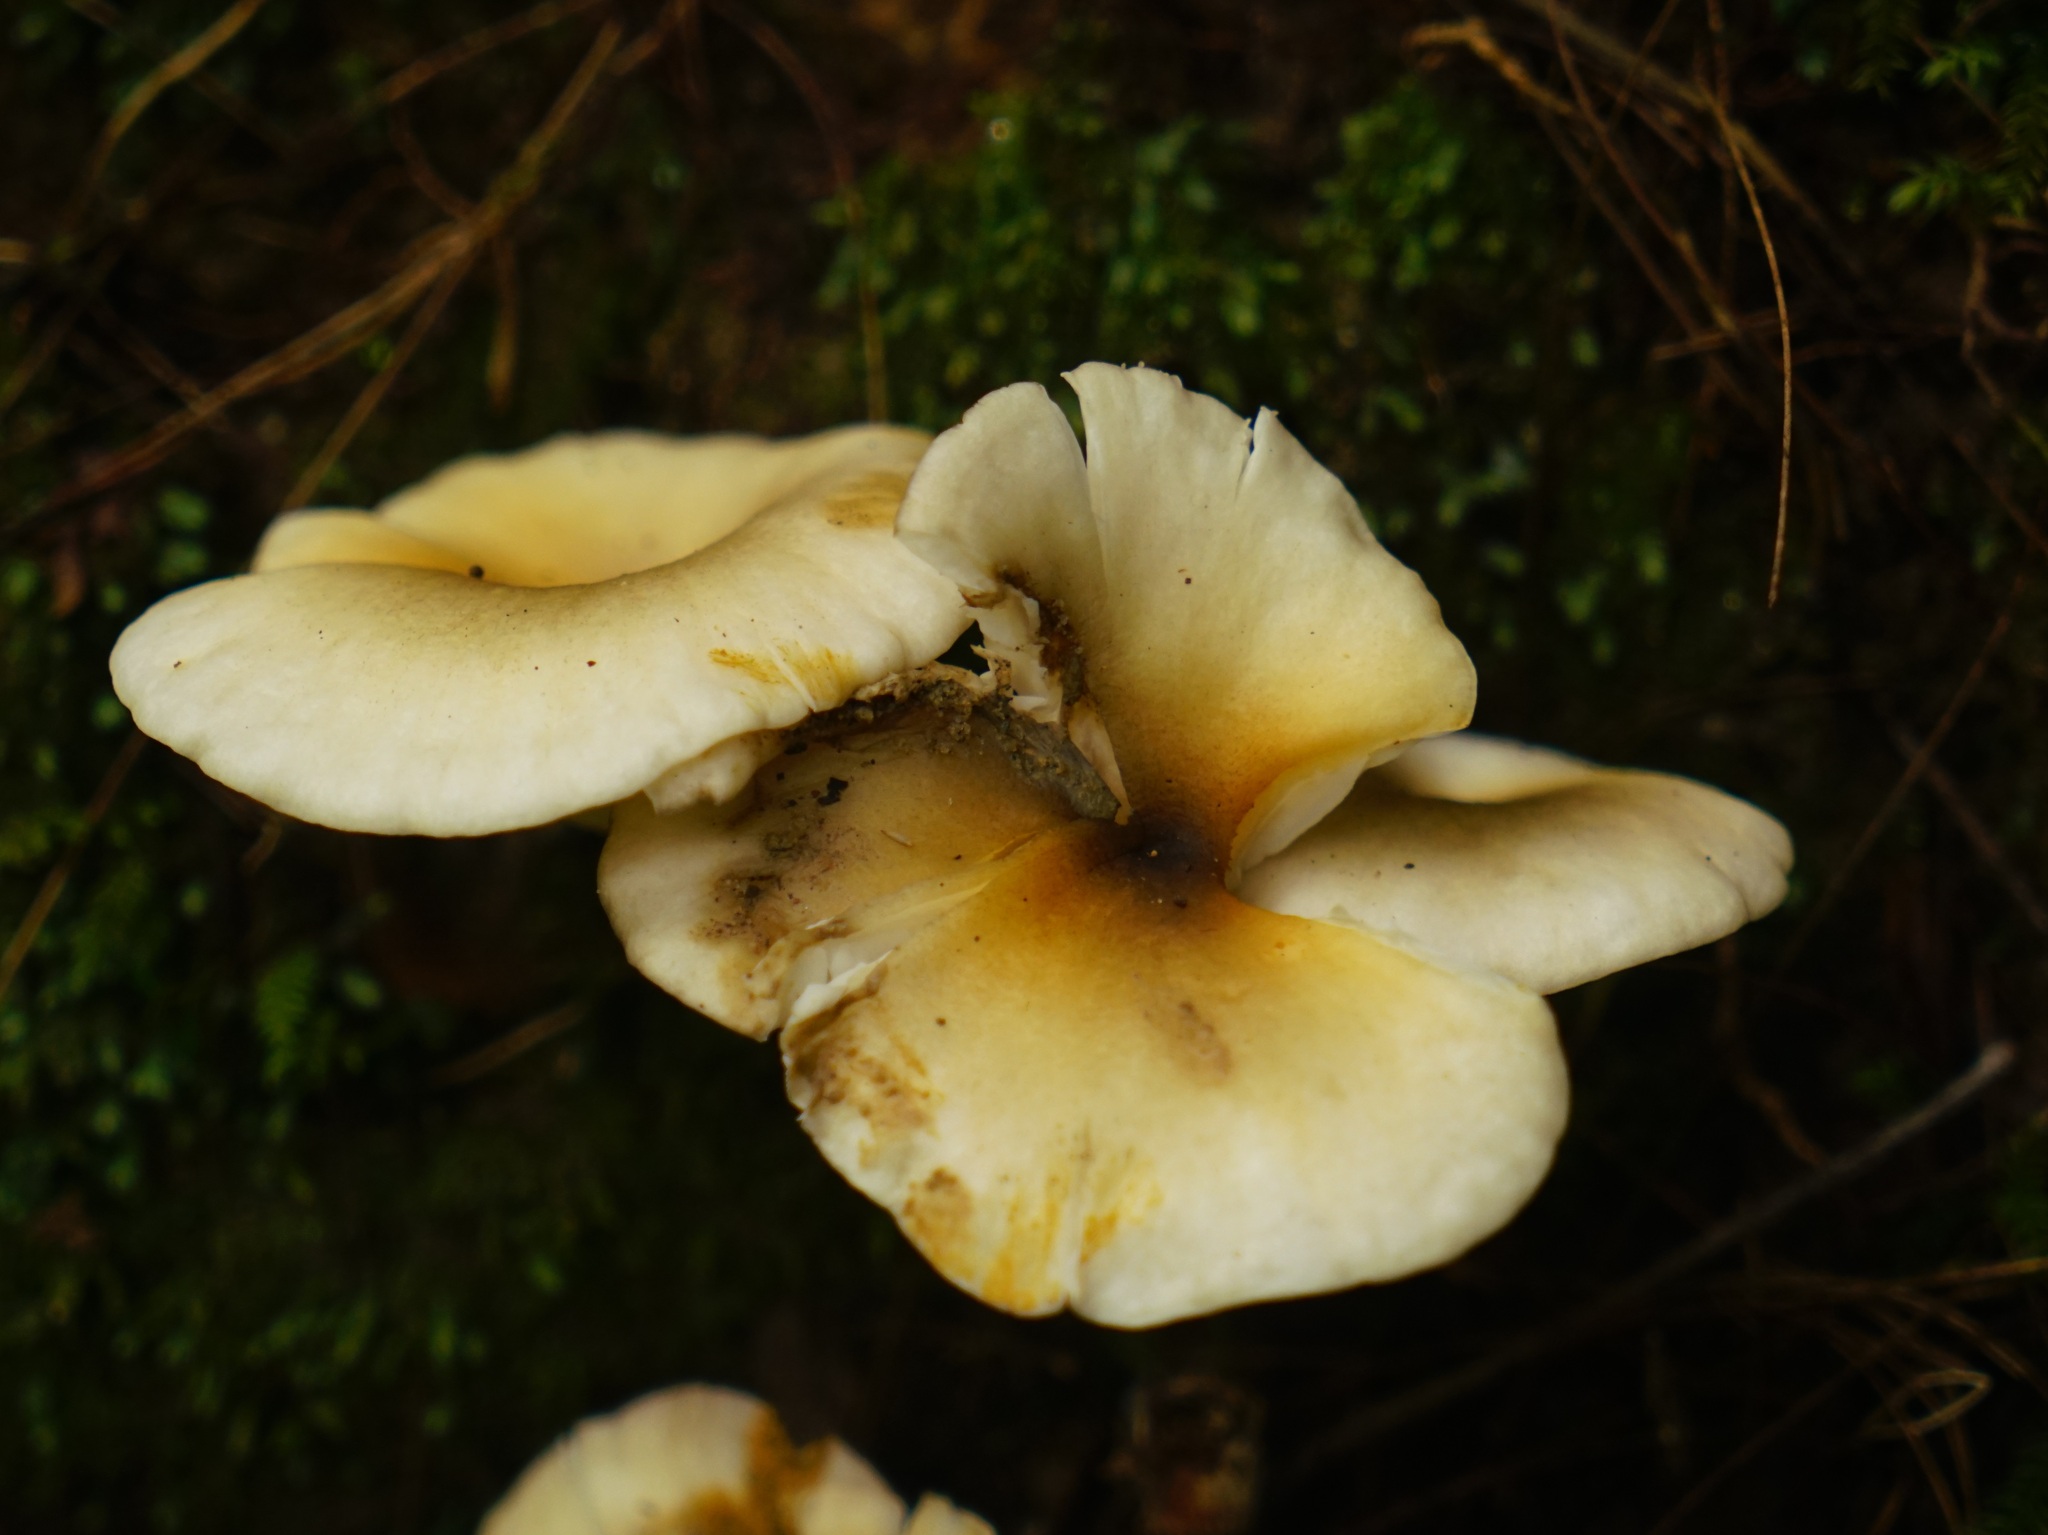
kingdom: Fungi
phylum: Basidiomycota
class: Agaricomycetes
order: Agaricales
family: Omphalotaceae
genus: Omphalotus
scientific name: Omphalotus nidiformis
